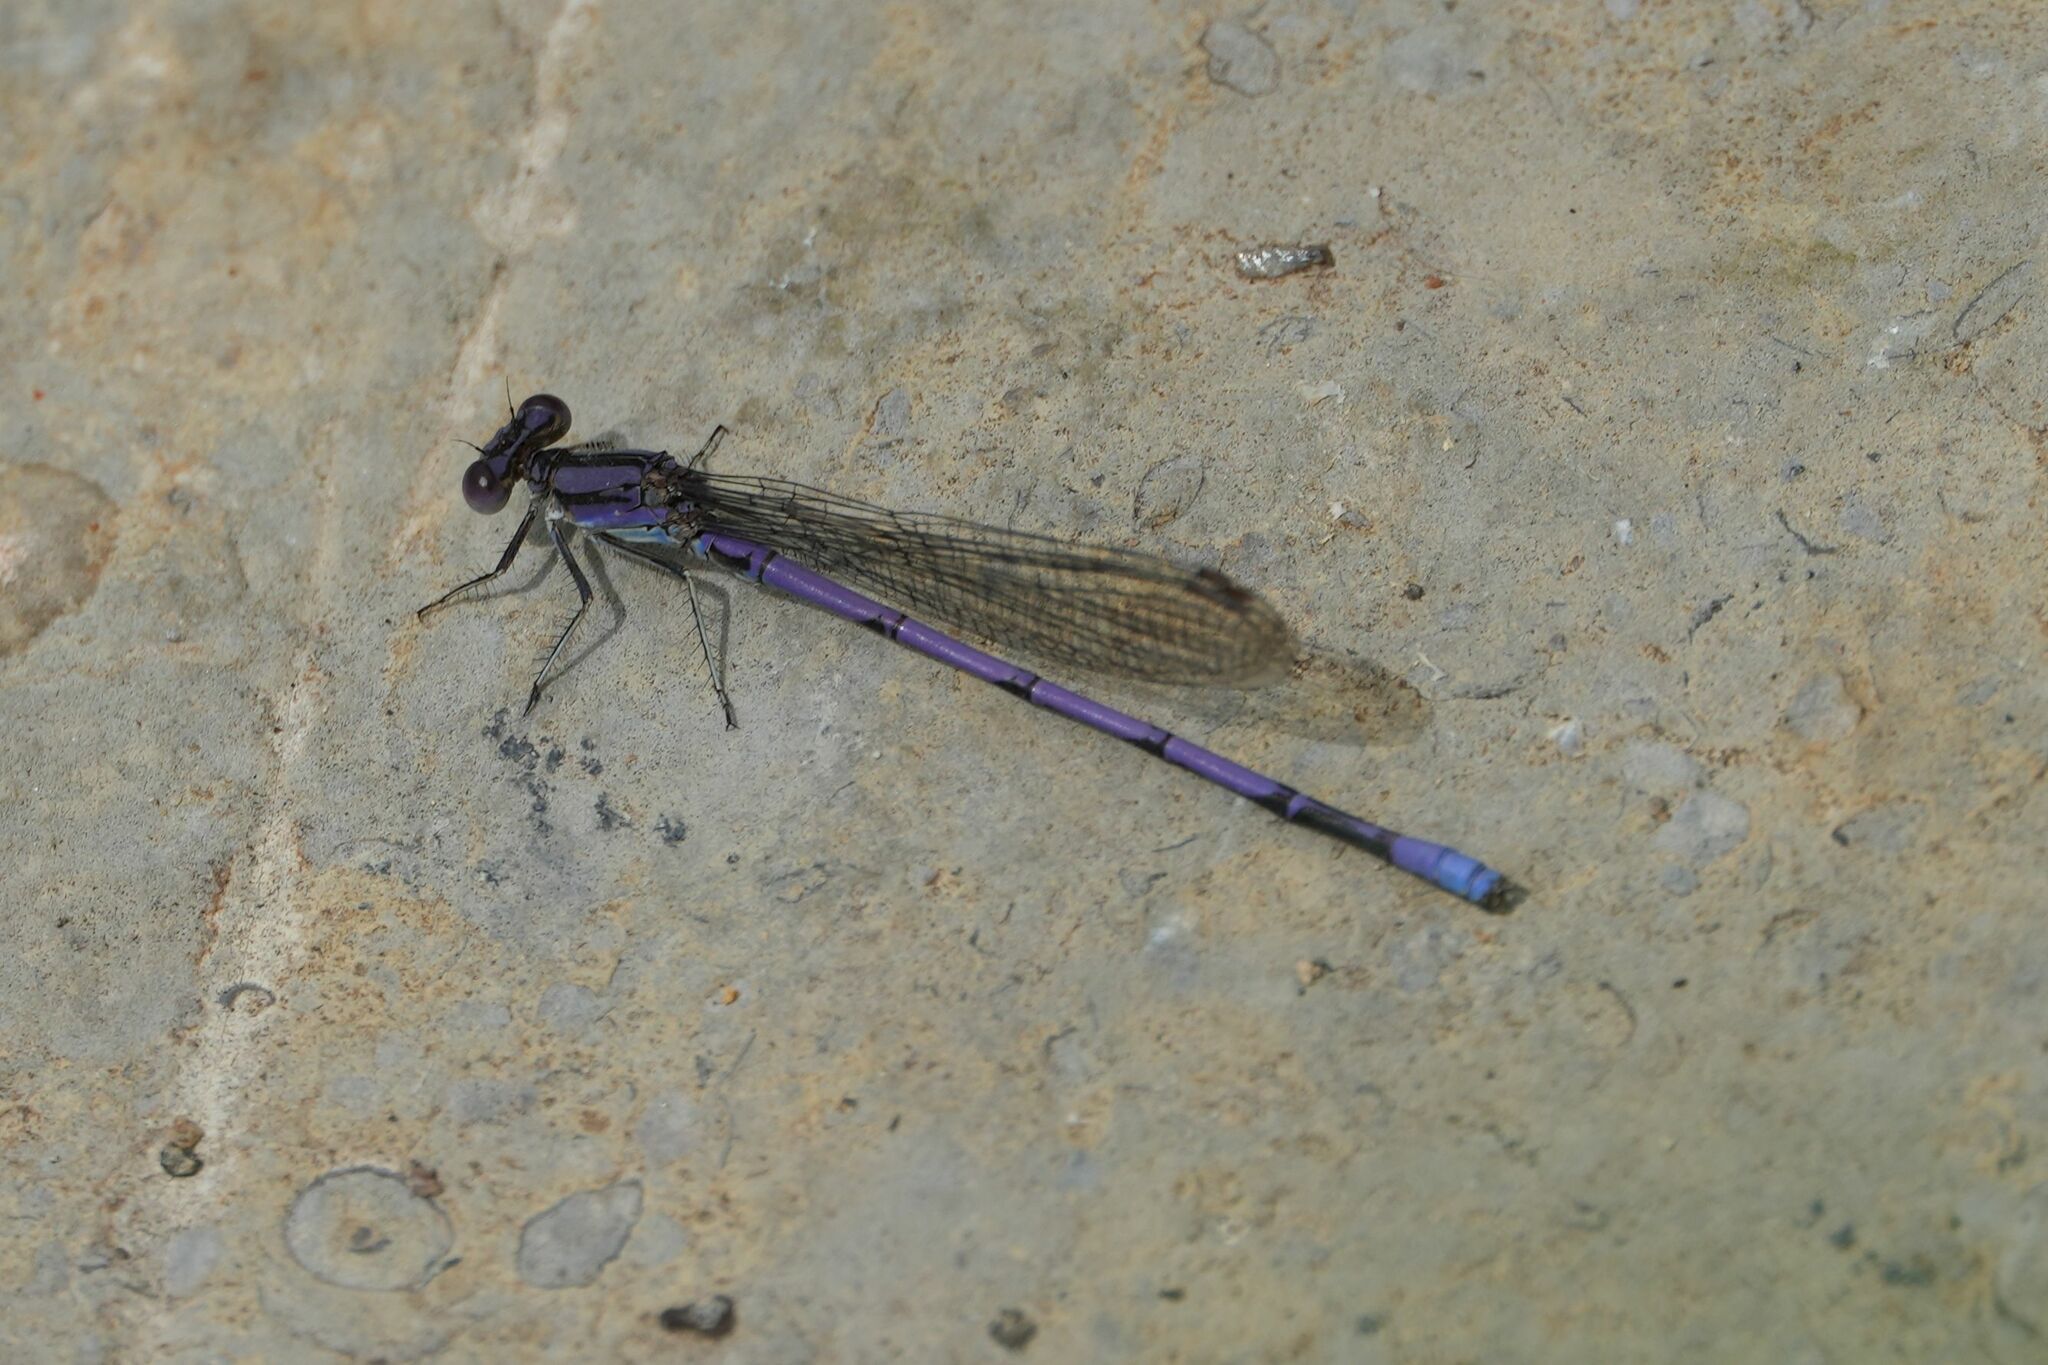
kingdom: Animalia
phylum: Arthropoda
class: Insecta
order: Odonata
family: Coenagrionidae
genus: Argia
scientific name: Argia fumipennis
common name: Variable dancer
